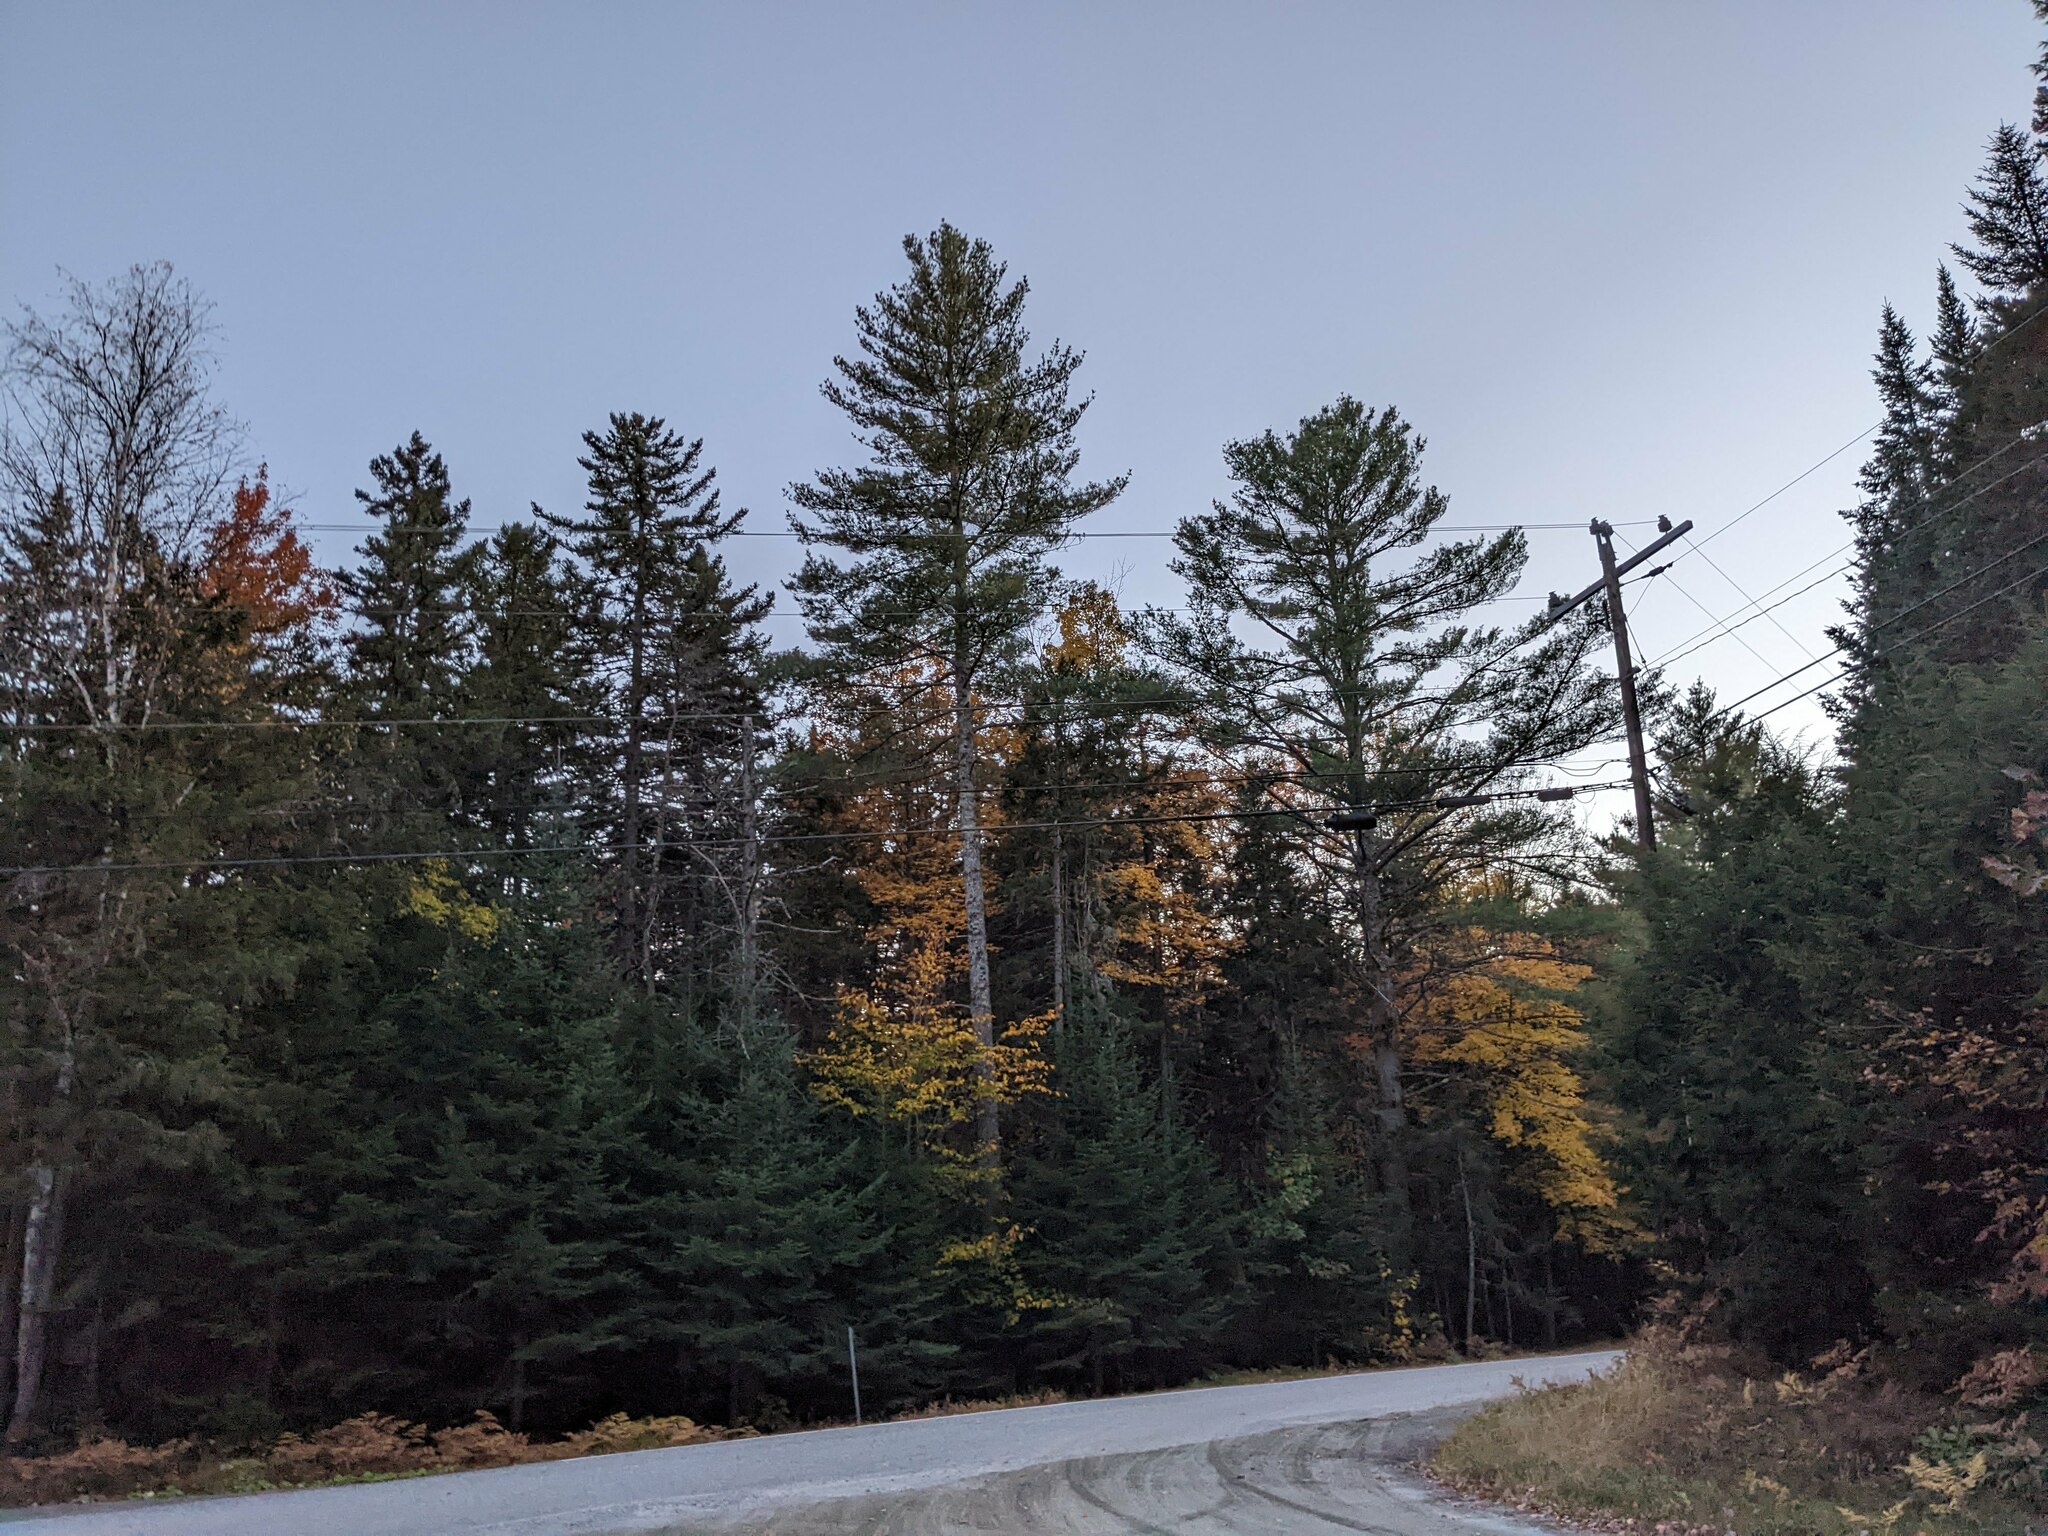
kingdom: Plantae
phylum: Tracheophyta
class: Pinopsida
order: Pinales
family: Pinaceae
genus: Pinus
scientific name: Pinus strobus
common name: Weymouth pine
